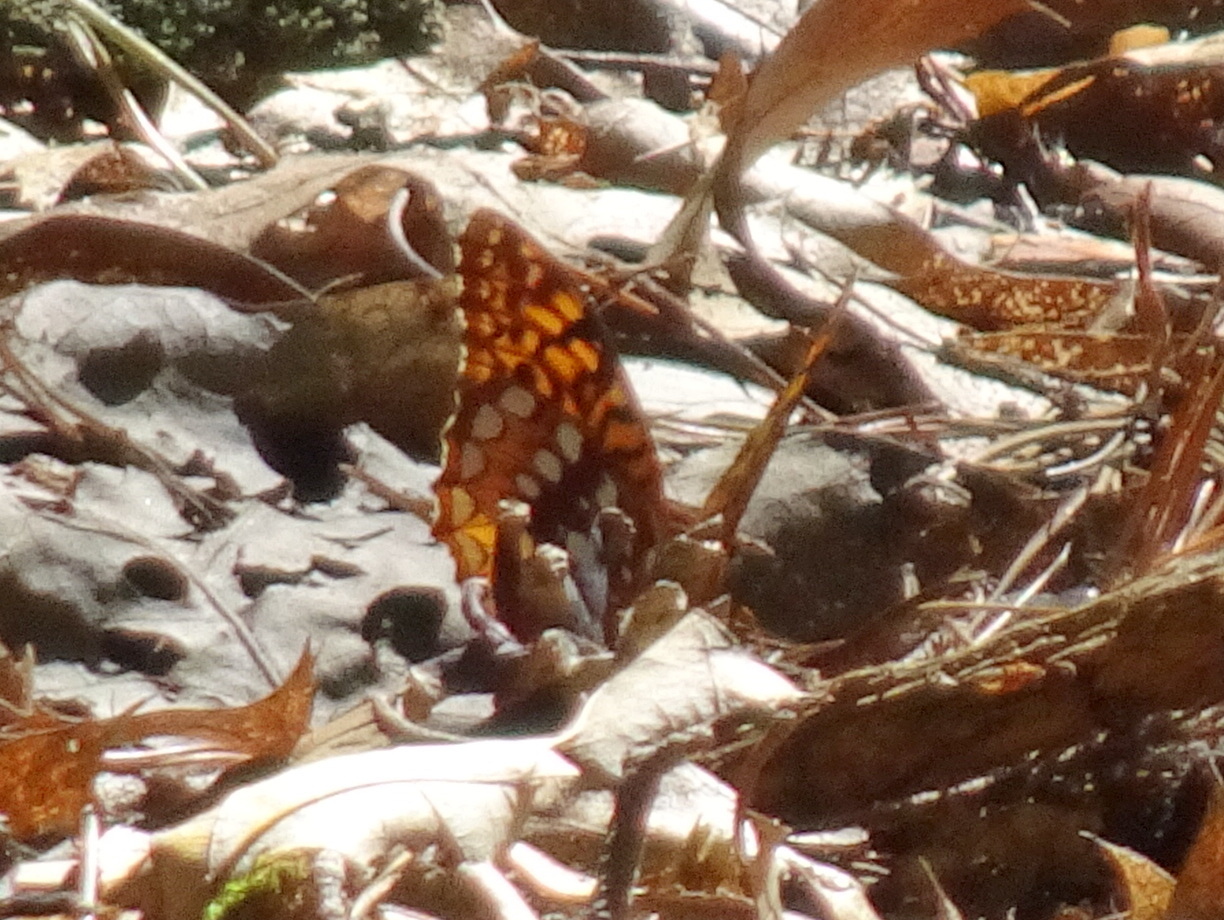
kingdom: Animalia
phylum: Arthropoda
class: Insecta
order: Lepidoptera
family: Nymphalidae
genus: Speyeria
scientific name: Speyeria cybele
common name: Great spangled fritillary
